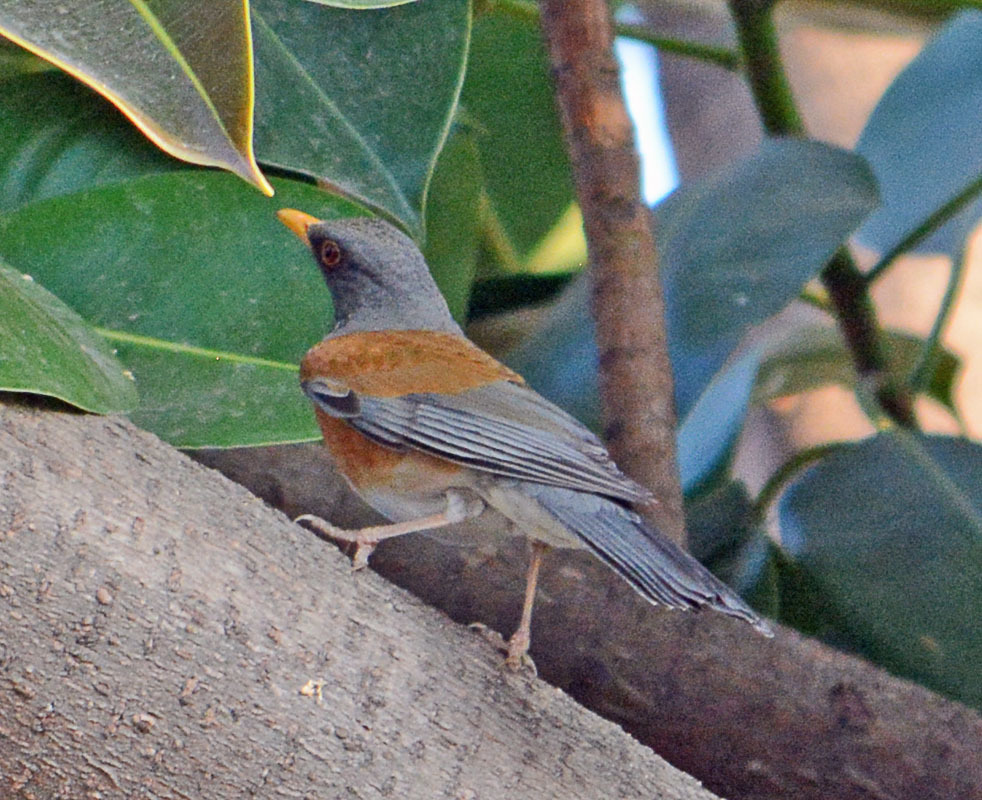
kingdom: Animalia
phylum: Chordata
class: Aves
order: Passeriformes
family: Turdidae
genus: Turdus
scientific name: Turdus rufopalliatus
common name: Rufous-backed robin
